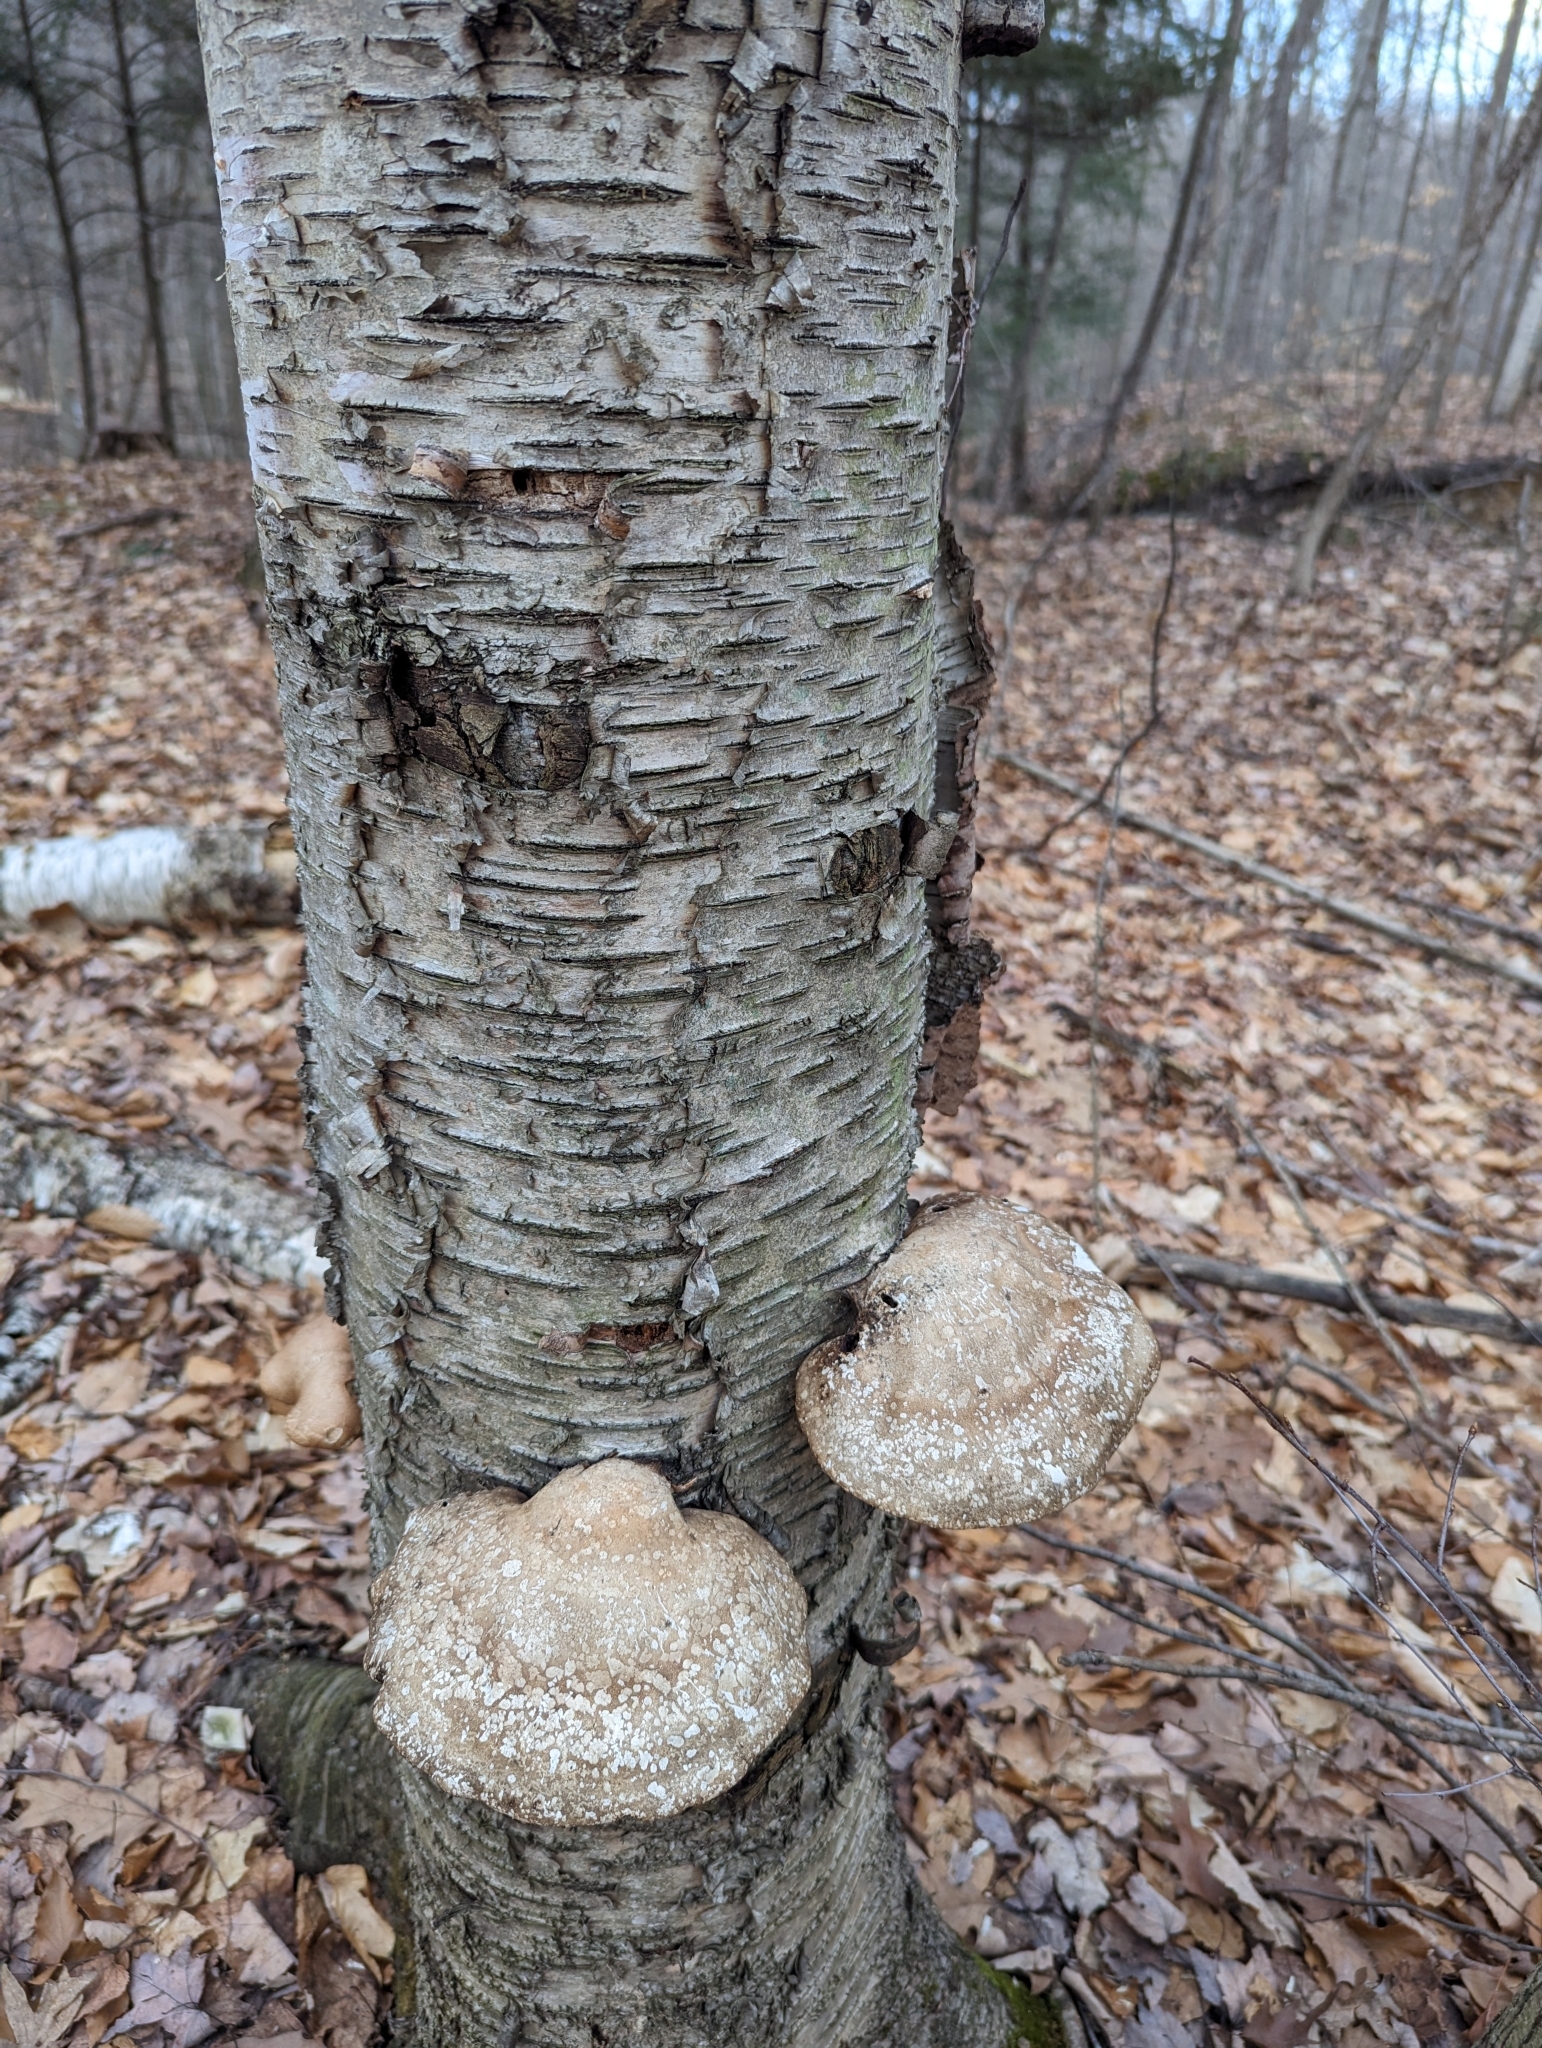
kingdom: Fungi
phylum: Basidiomycota
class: Agaricomycetes
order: Polyporales
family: Fomitopsidaceae
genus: Fomitopsis
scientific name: Fomitopsis betulina
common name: Birch polypore
